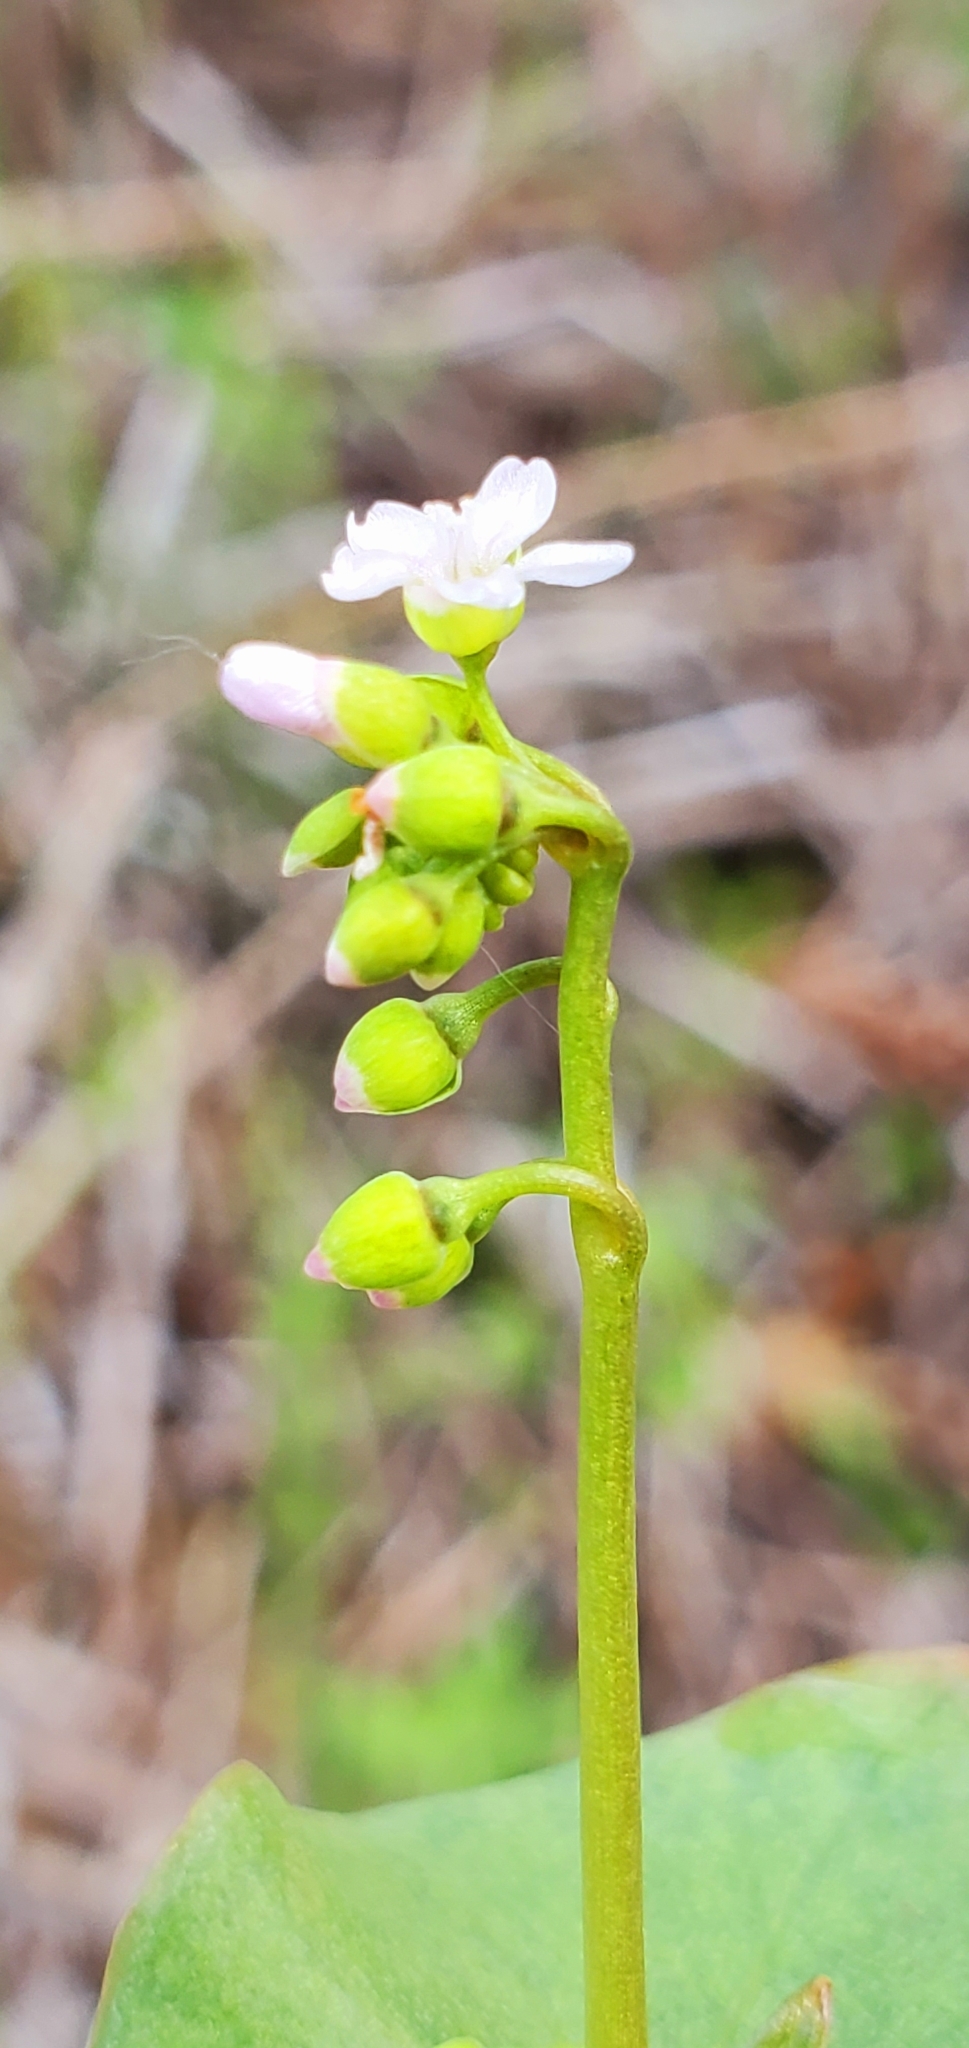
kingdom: Plantae
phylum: Tracheophyta
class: Magnoliopsida
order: Caryophyllales
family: Montiaceae
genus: Claytonia
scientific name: Claytonia perfoliata
